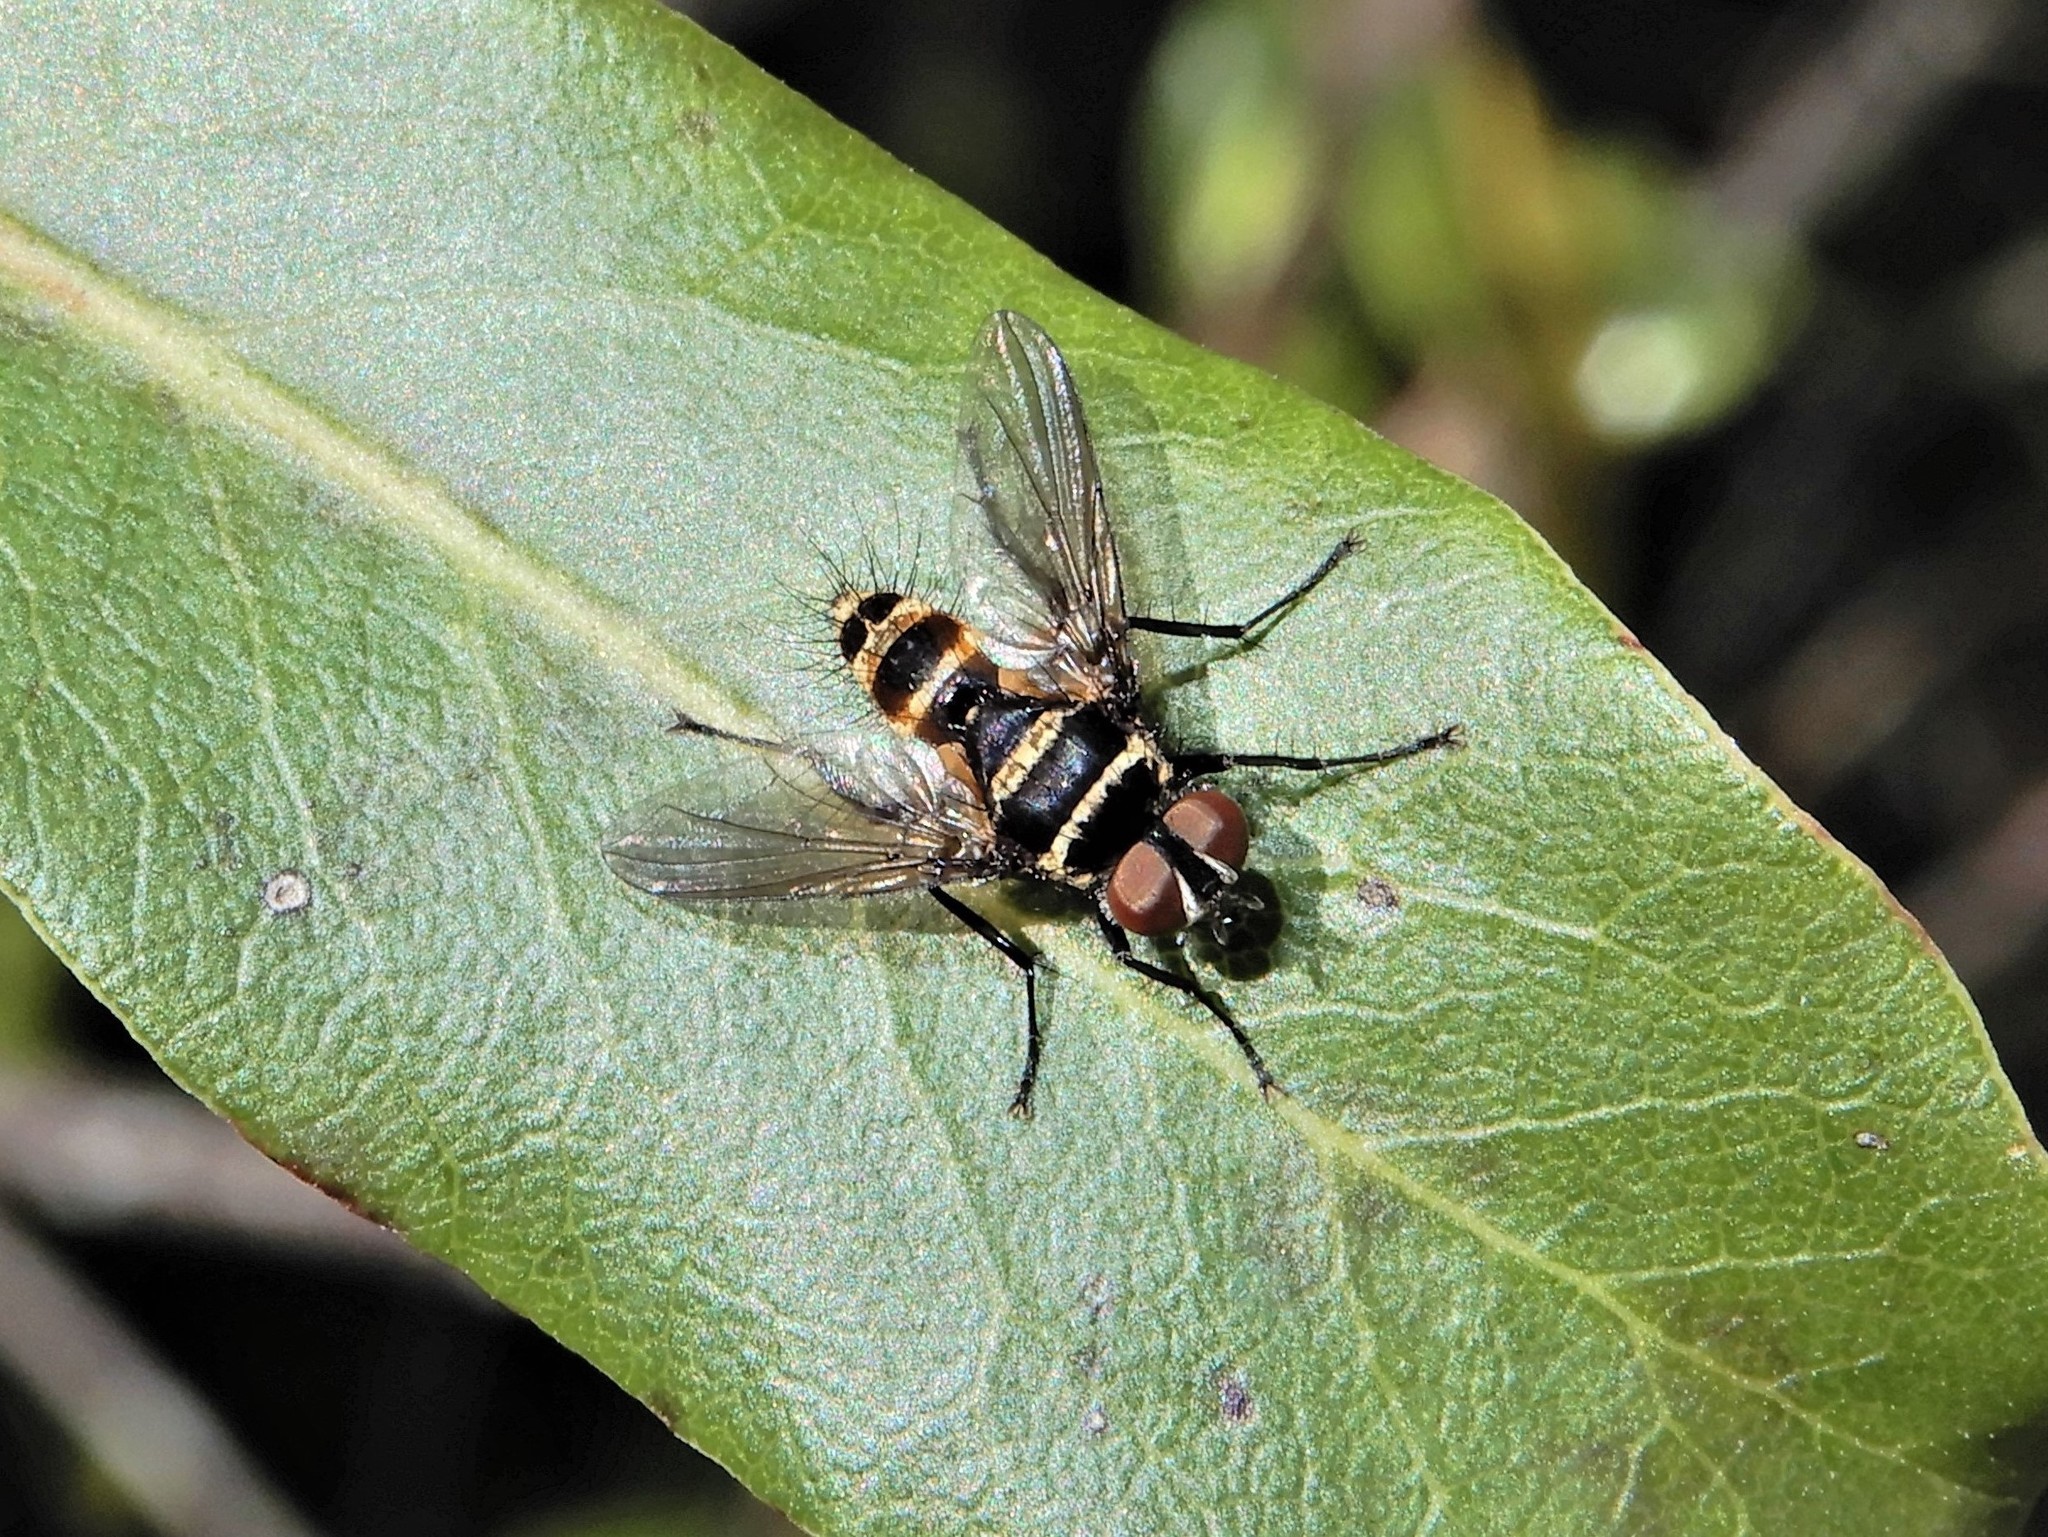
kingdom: Animalia
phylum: Arthropoda
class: Insecta
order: Diptera
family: Tachinidae
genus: Trigonospila
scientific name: Trigonospila brevifacies
